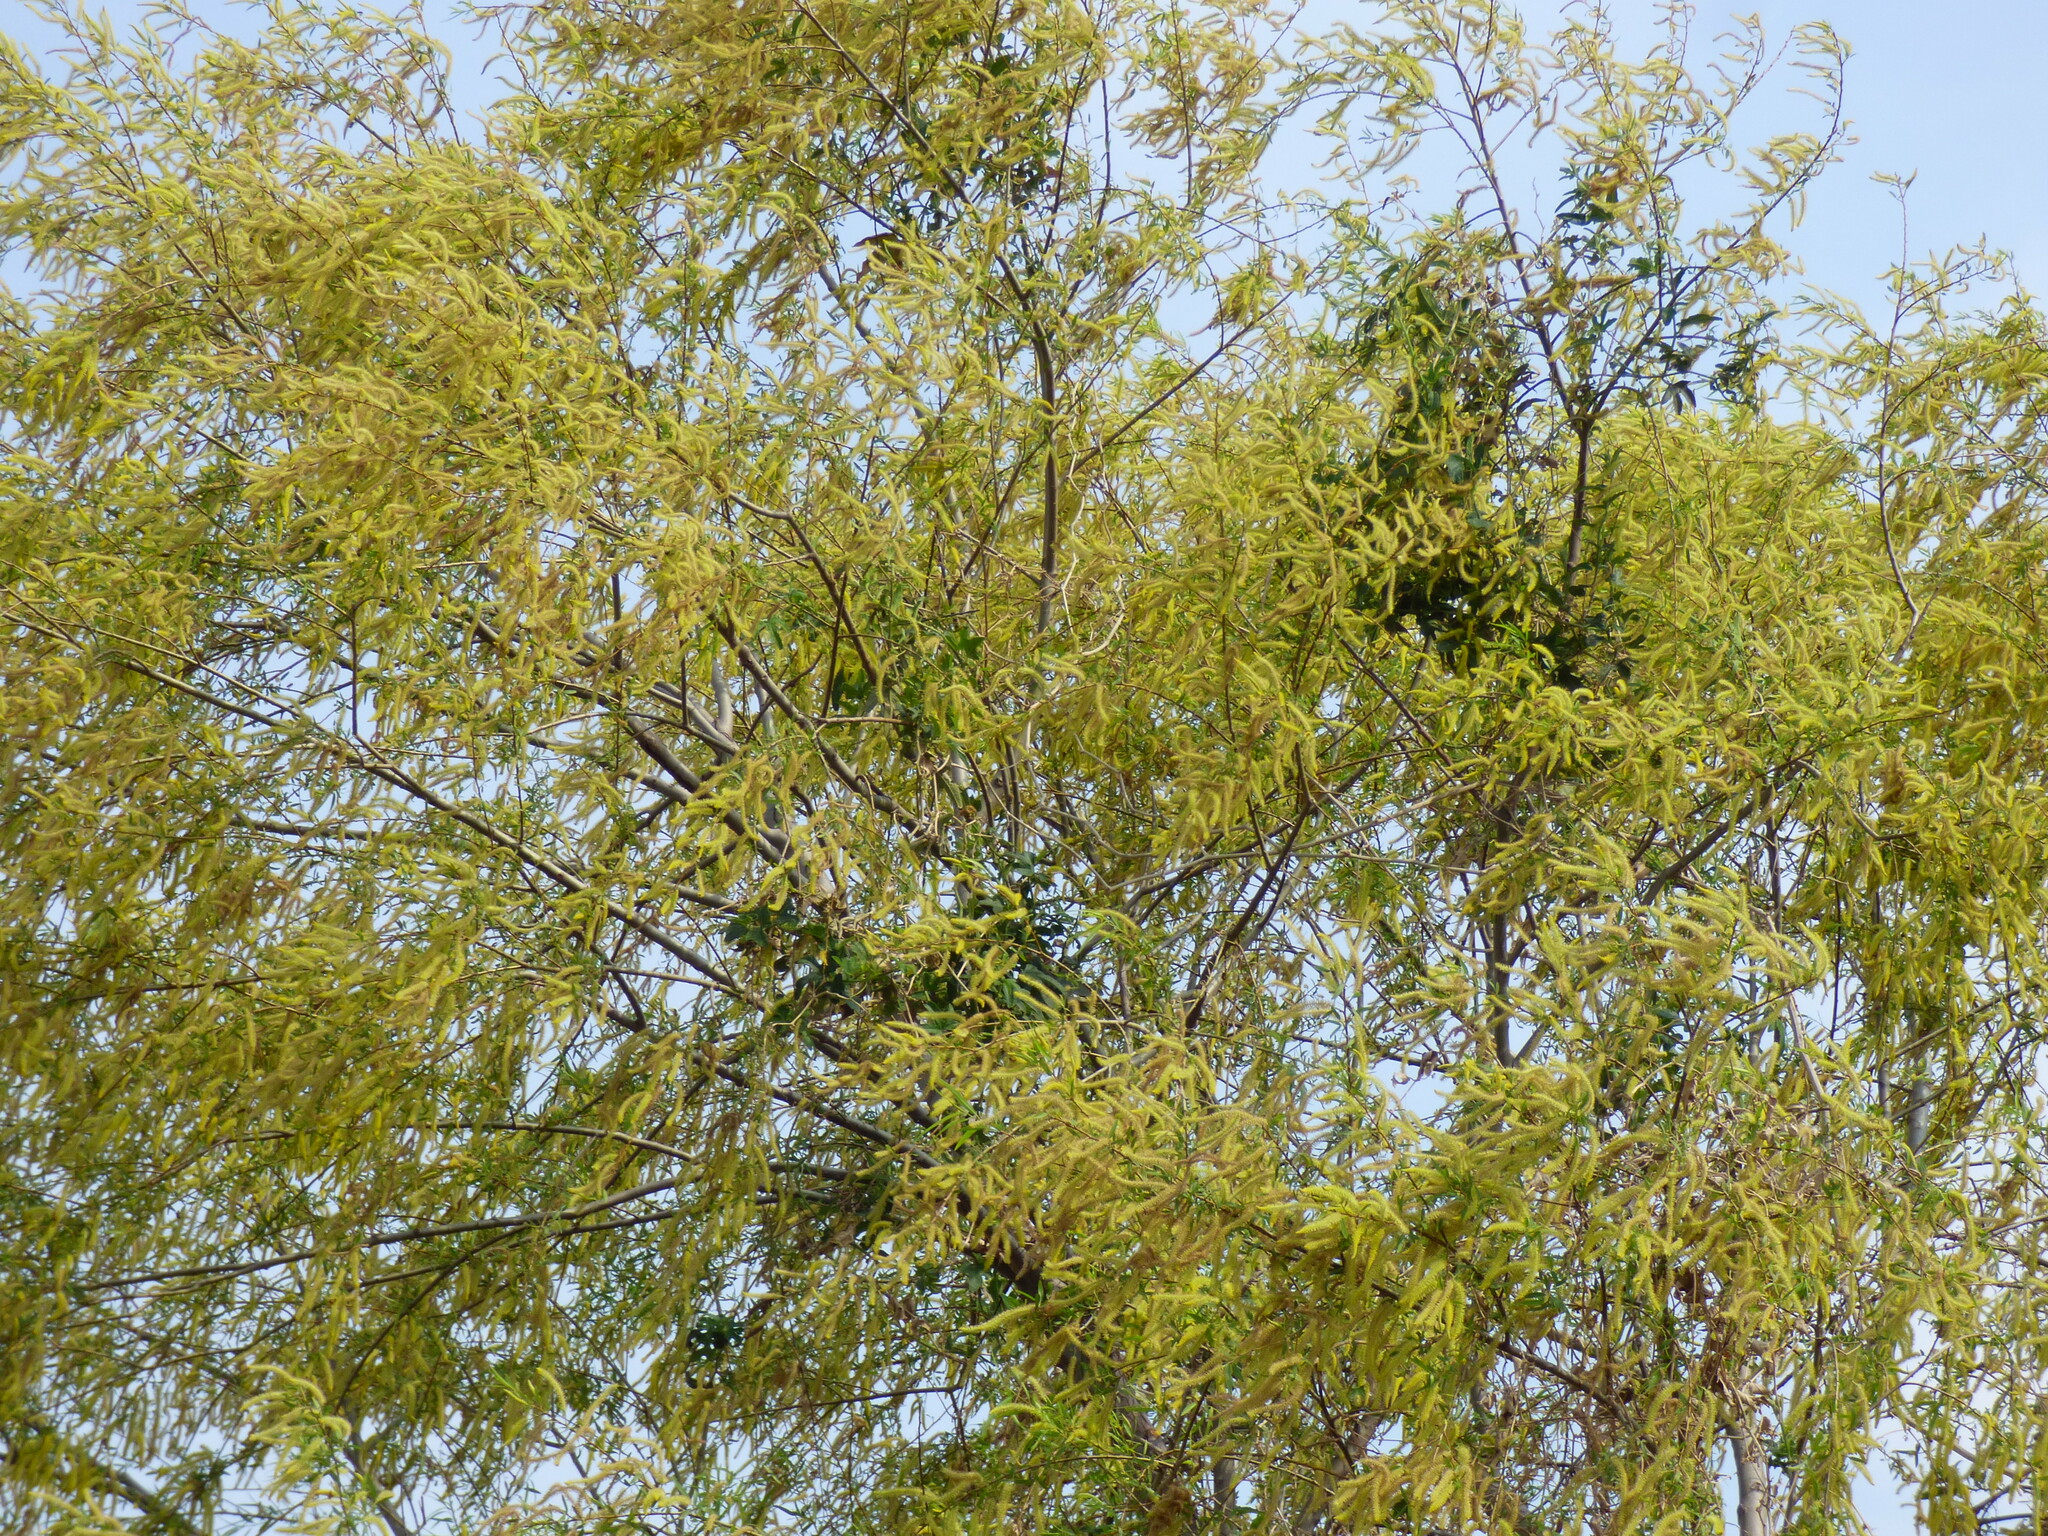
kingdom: Plantae
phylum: Tracheophyta
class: Magnoliopsida
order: Malpighiales
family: Salicaceae
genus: Salix
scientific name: Salix humboldtiana
